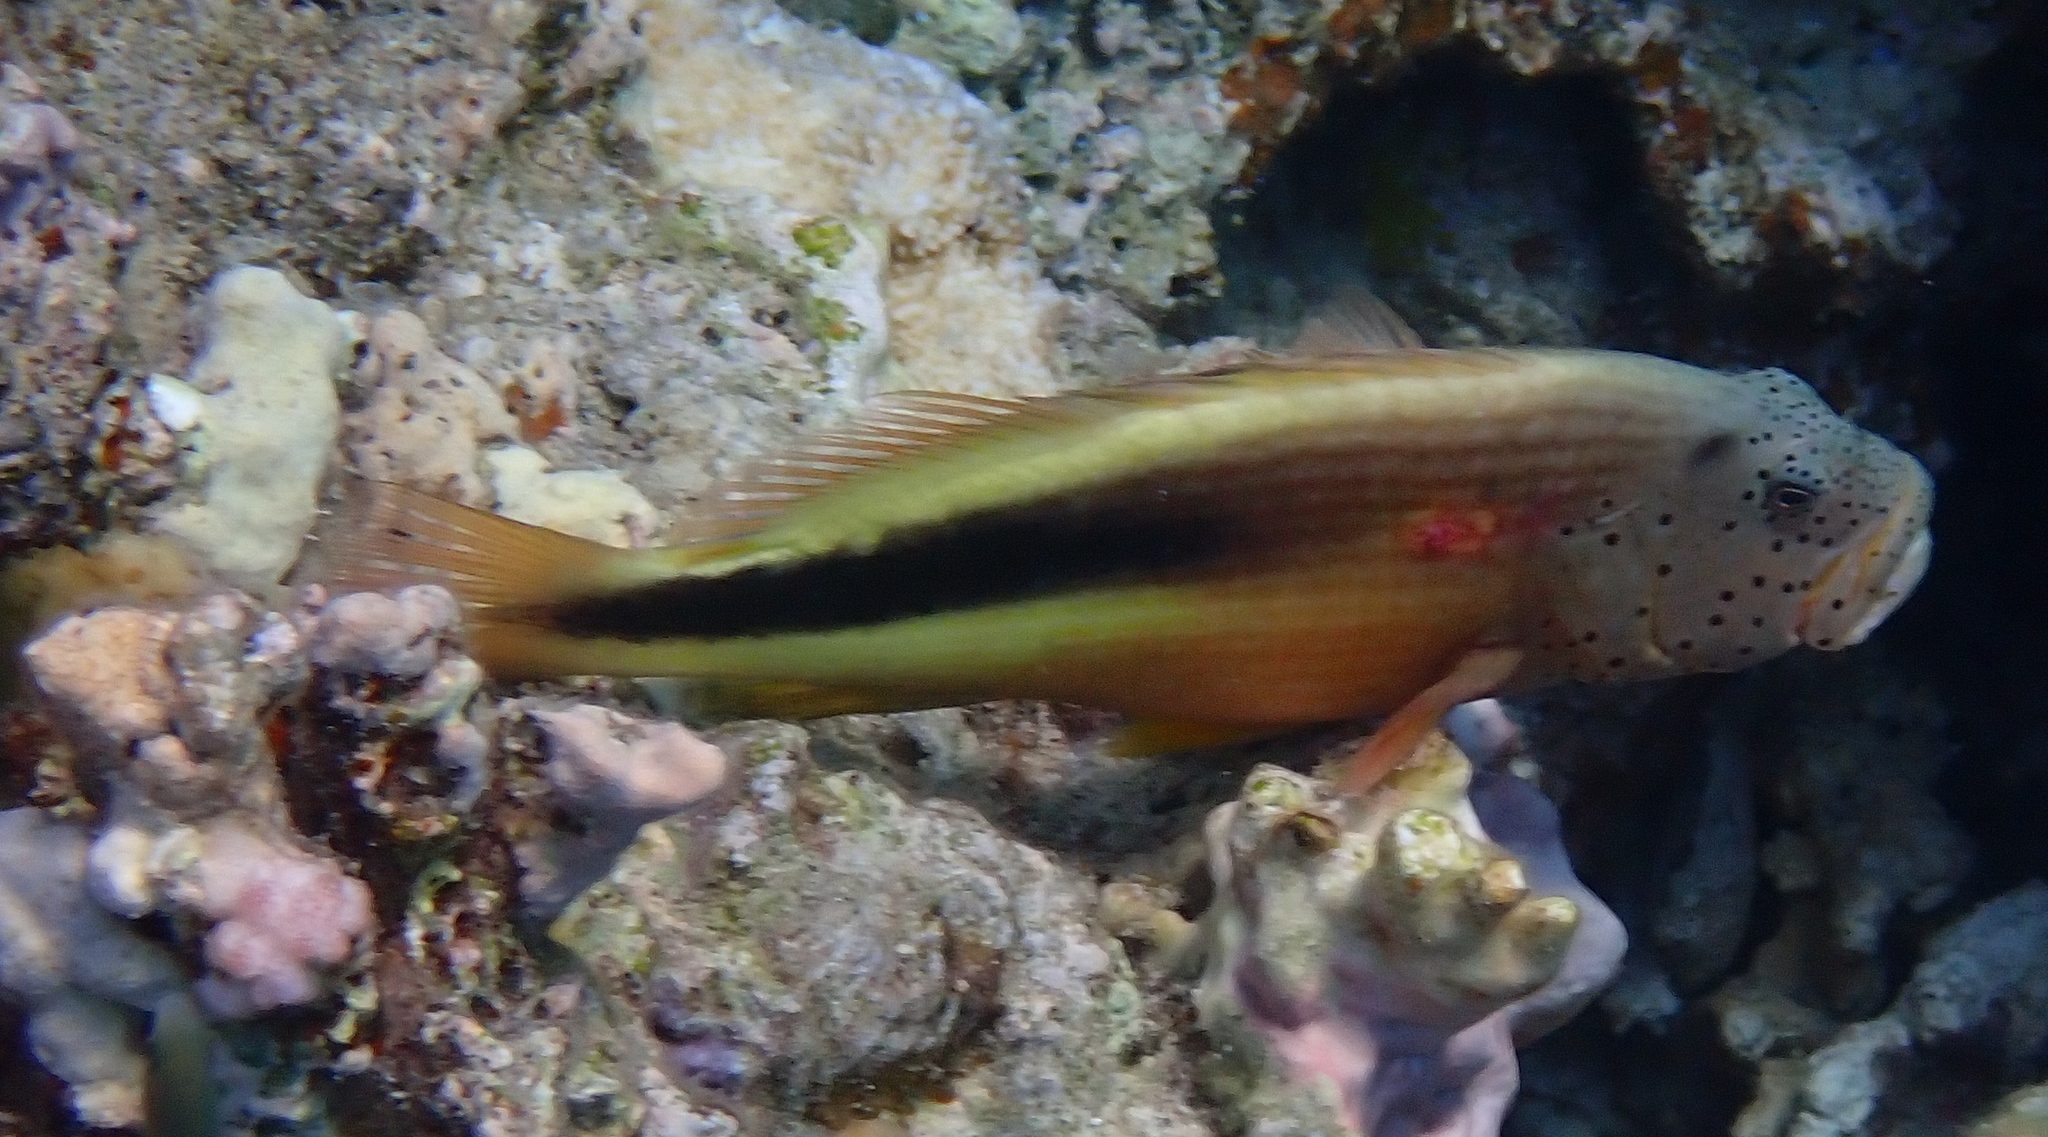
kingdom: Animalia
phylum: Chordata
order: Perciformes
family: Cirrhitidae
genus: Paracirrhites
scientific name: Paracirrhites forsteri
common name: Freckled hawkfish
